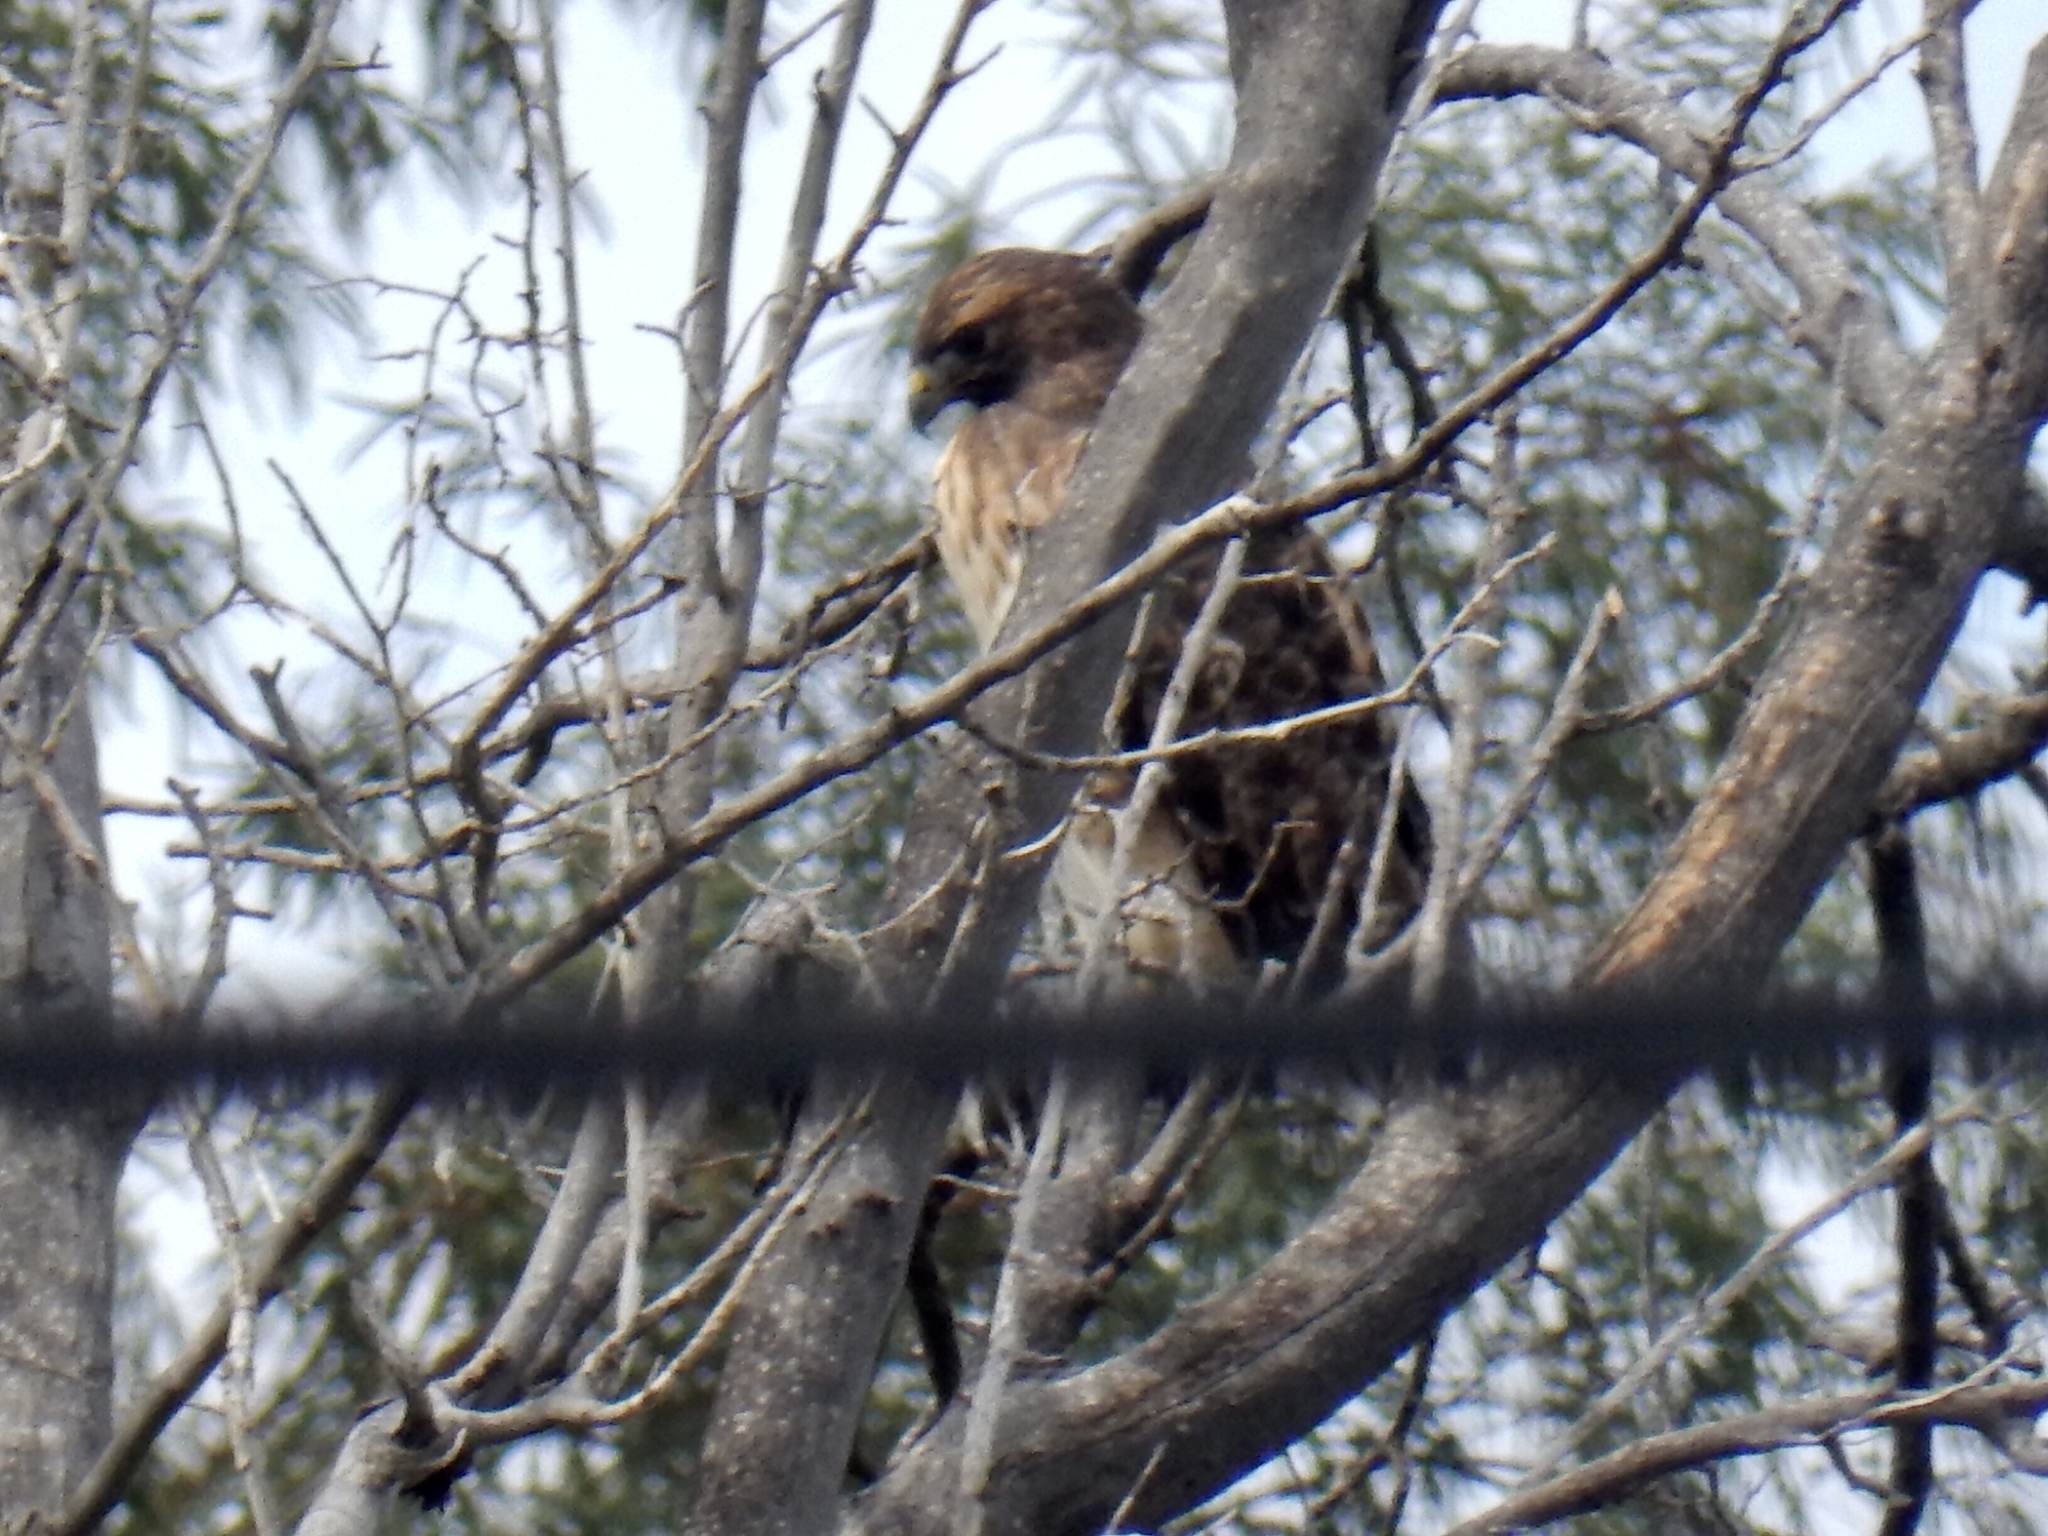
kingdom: Animalia
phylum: Chordata
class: Aves
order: Accipitriformes
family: Accipitridae
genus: Buteo
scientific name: Buteo jamaicensis
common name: Red-tailed hawk
